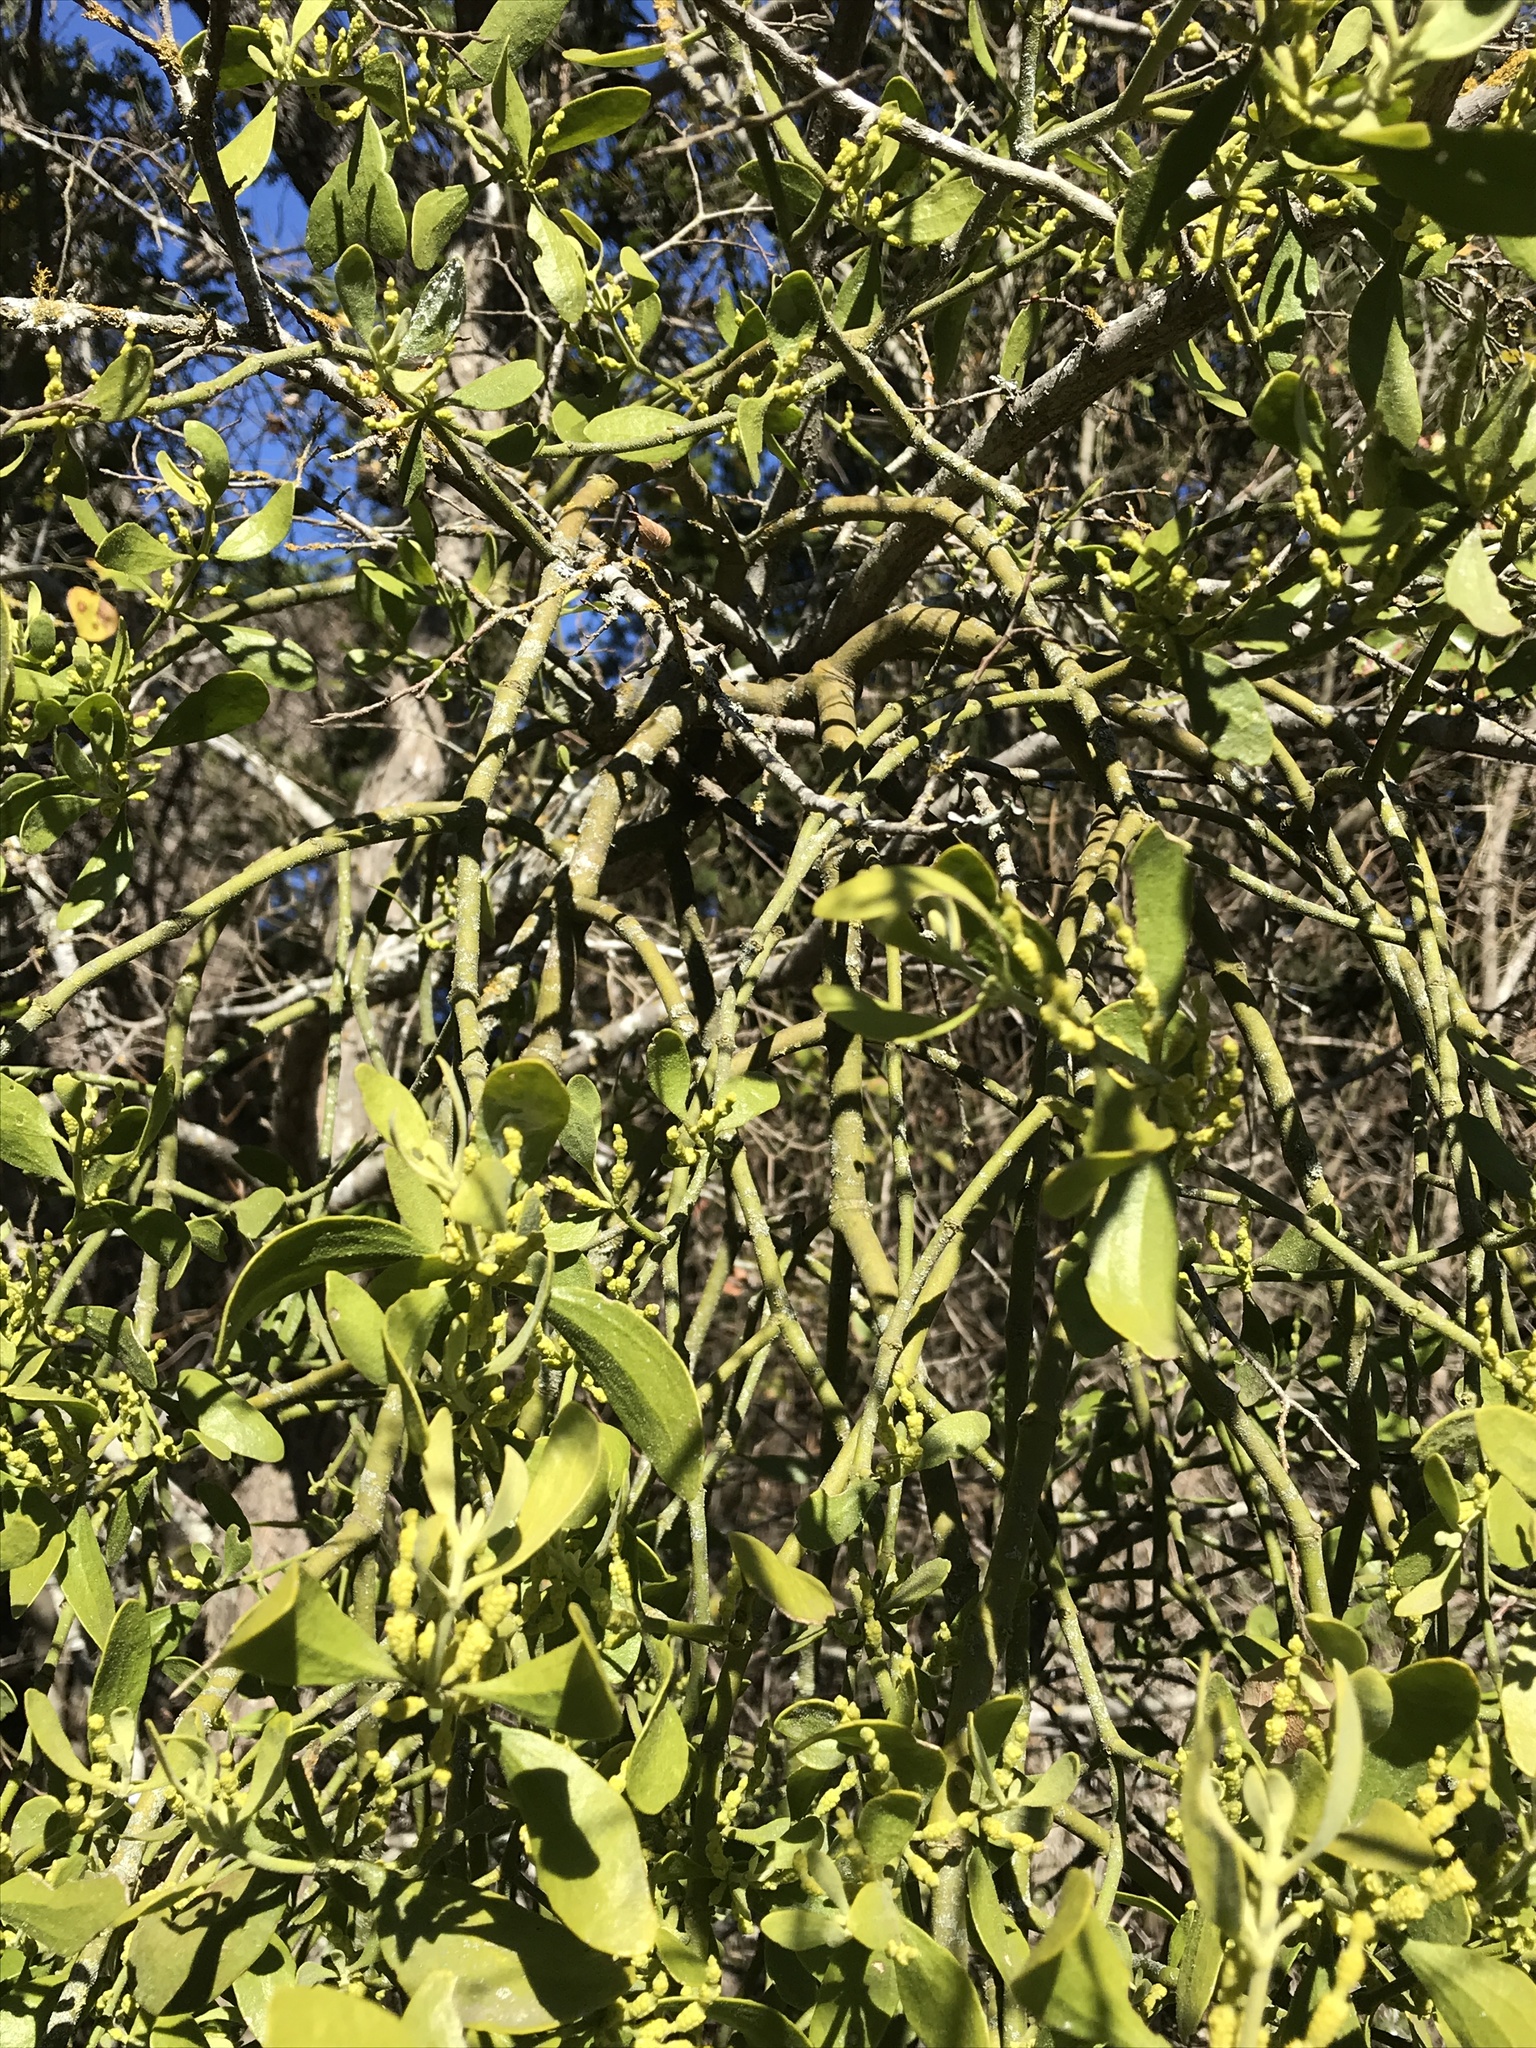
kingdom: Plantae
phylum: Tracheophyta
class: Magnoliopsida
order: Santalales
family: Viscaceae
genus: Phoradendron
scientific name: Phoradendron leucarpum
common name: Pacific mistletoe
